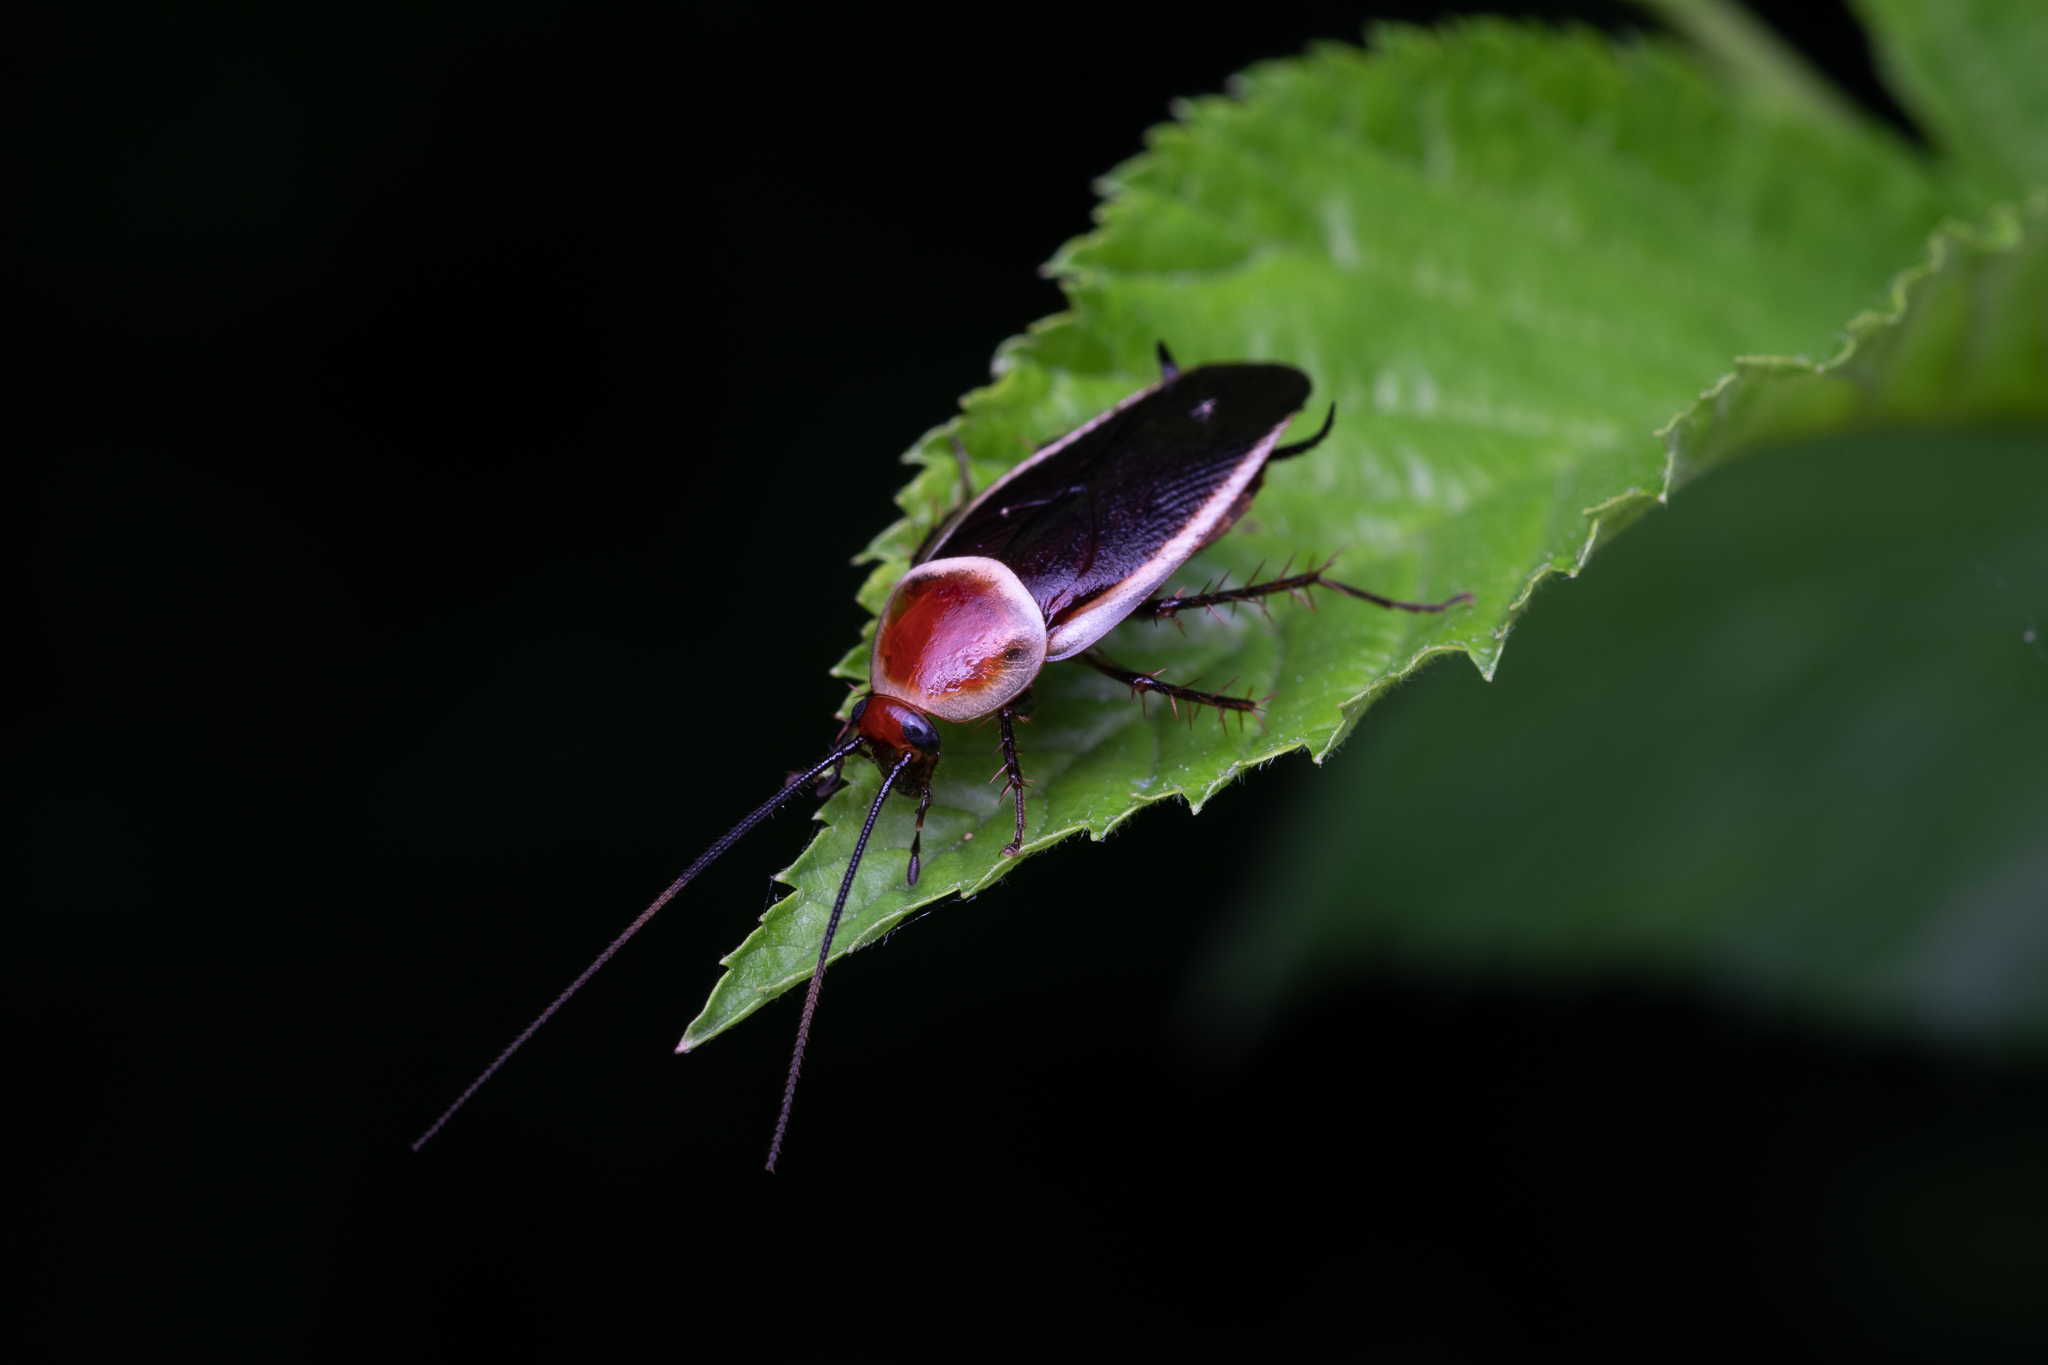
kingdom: Animalia
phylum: Arthropoda
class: Insecta
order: Blattodea
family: Ectobiidae
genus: Pseudomops
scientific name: Pseudomops septentrionalis
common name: Pale-bordered field cockroach
